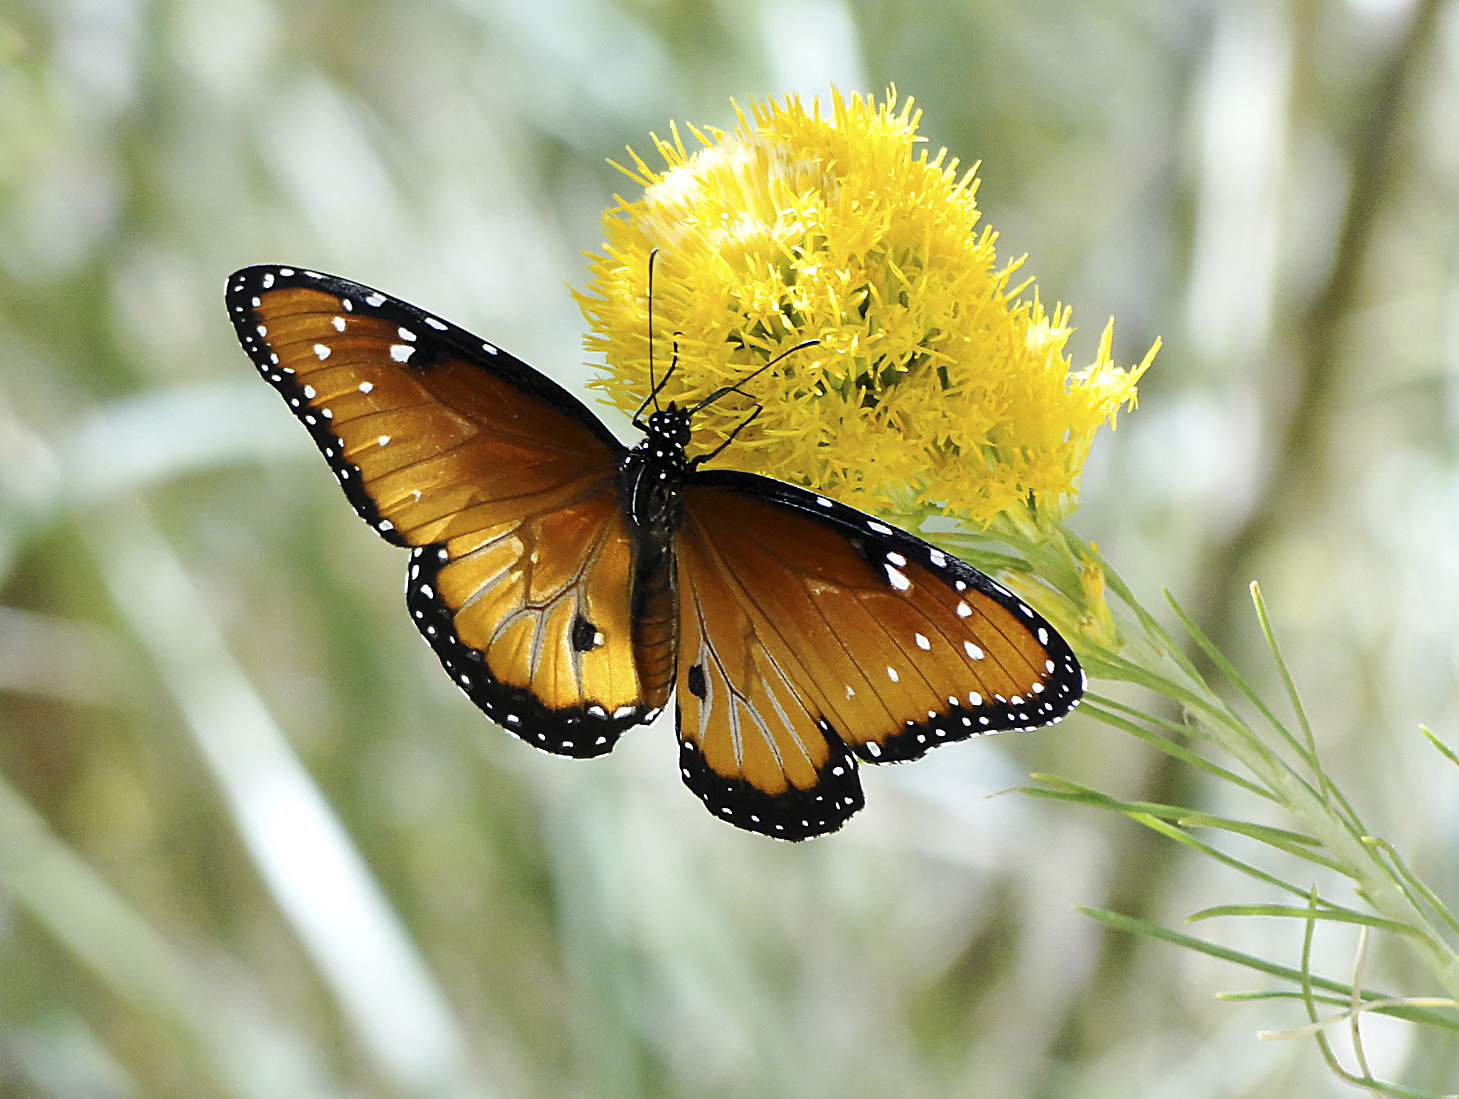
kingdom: Animalia
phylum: Arthropoda
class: Insecta
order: Lepidoptera
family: Nymphalidae
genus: Danaus
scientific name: Danaus gilippus
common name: Queen
